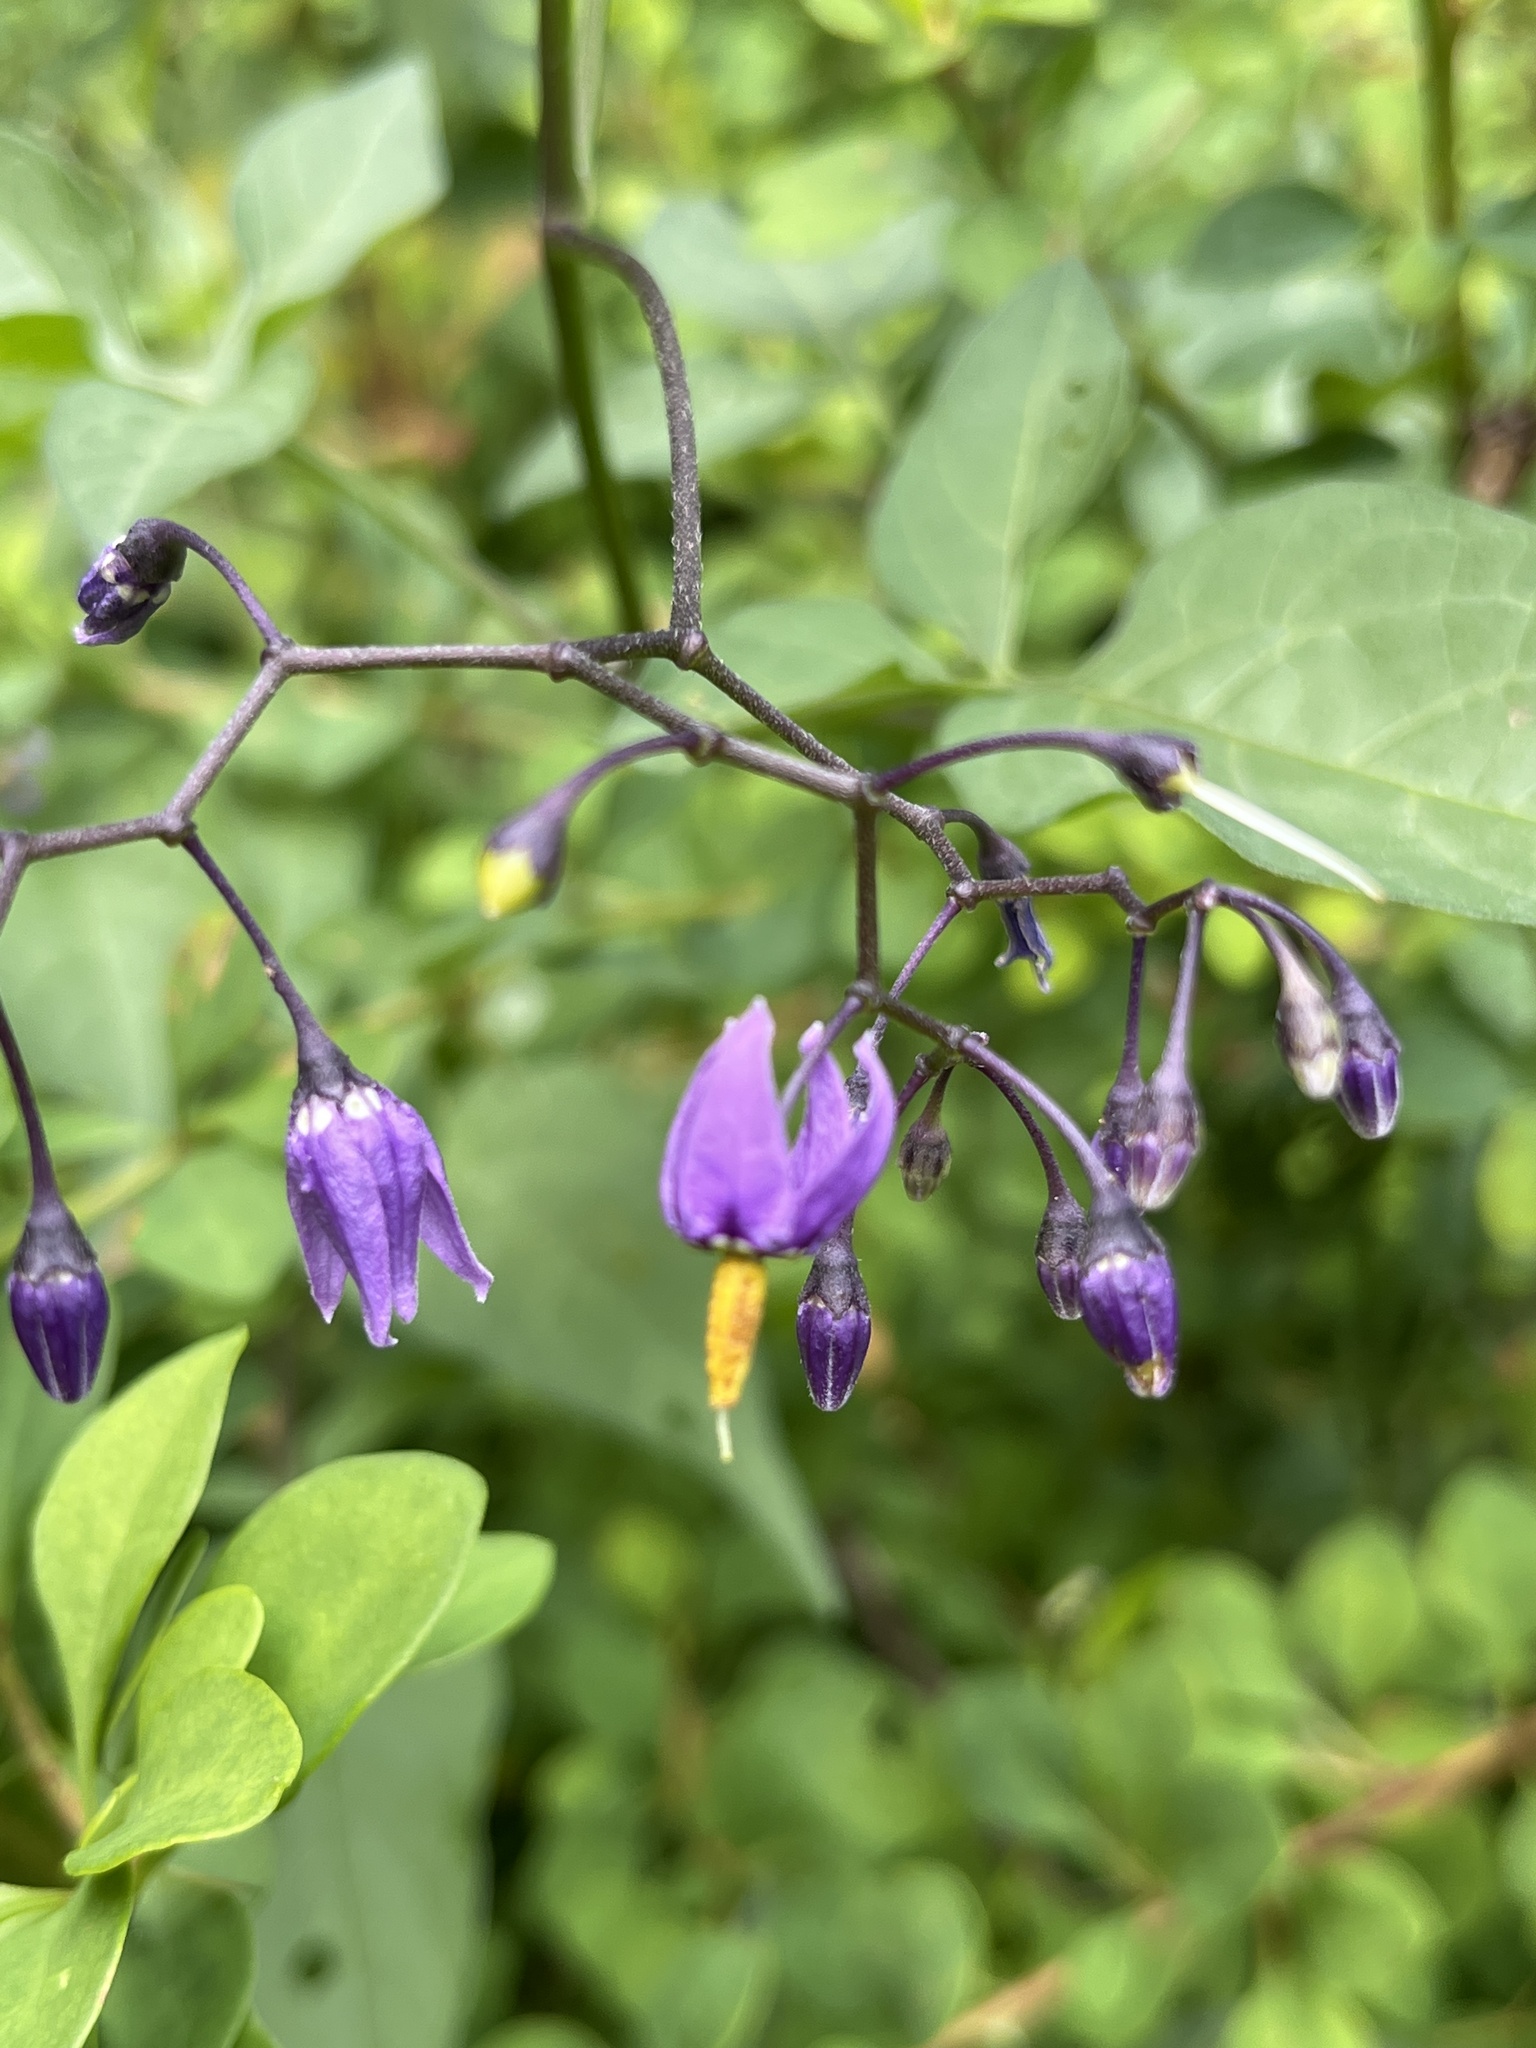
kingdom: Plantae
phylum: Tracheophyta
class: Magnoliopsida
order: Solanales
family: Solanaceae
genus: Solanum
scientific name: Solanum dulcamara
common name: Climbing nightshade
